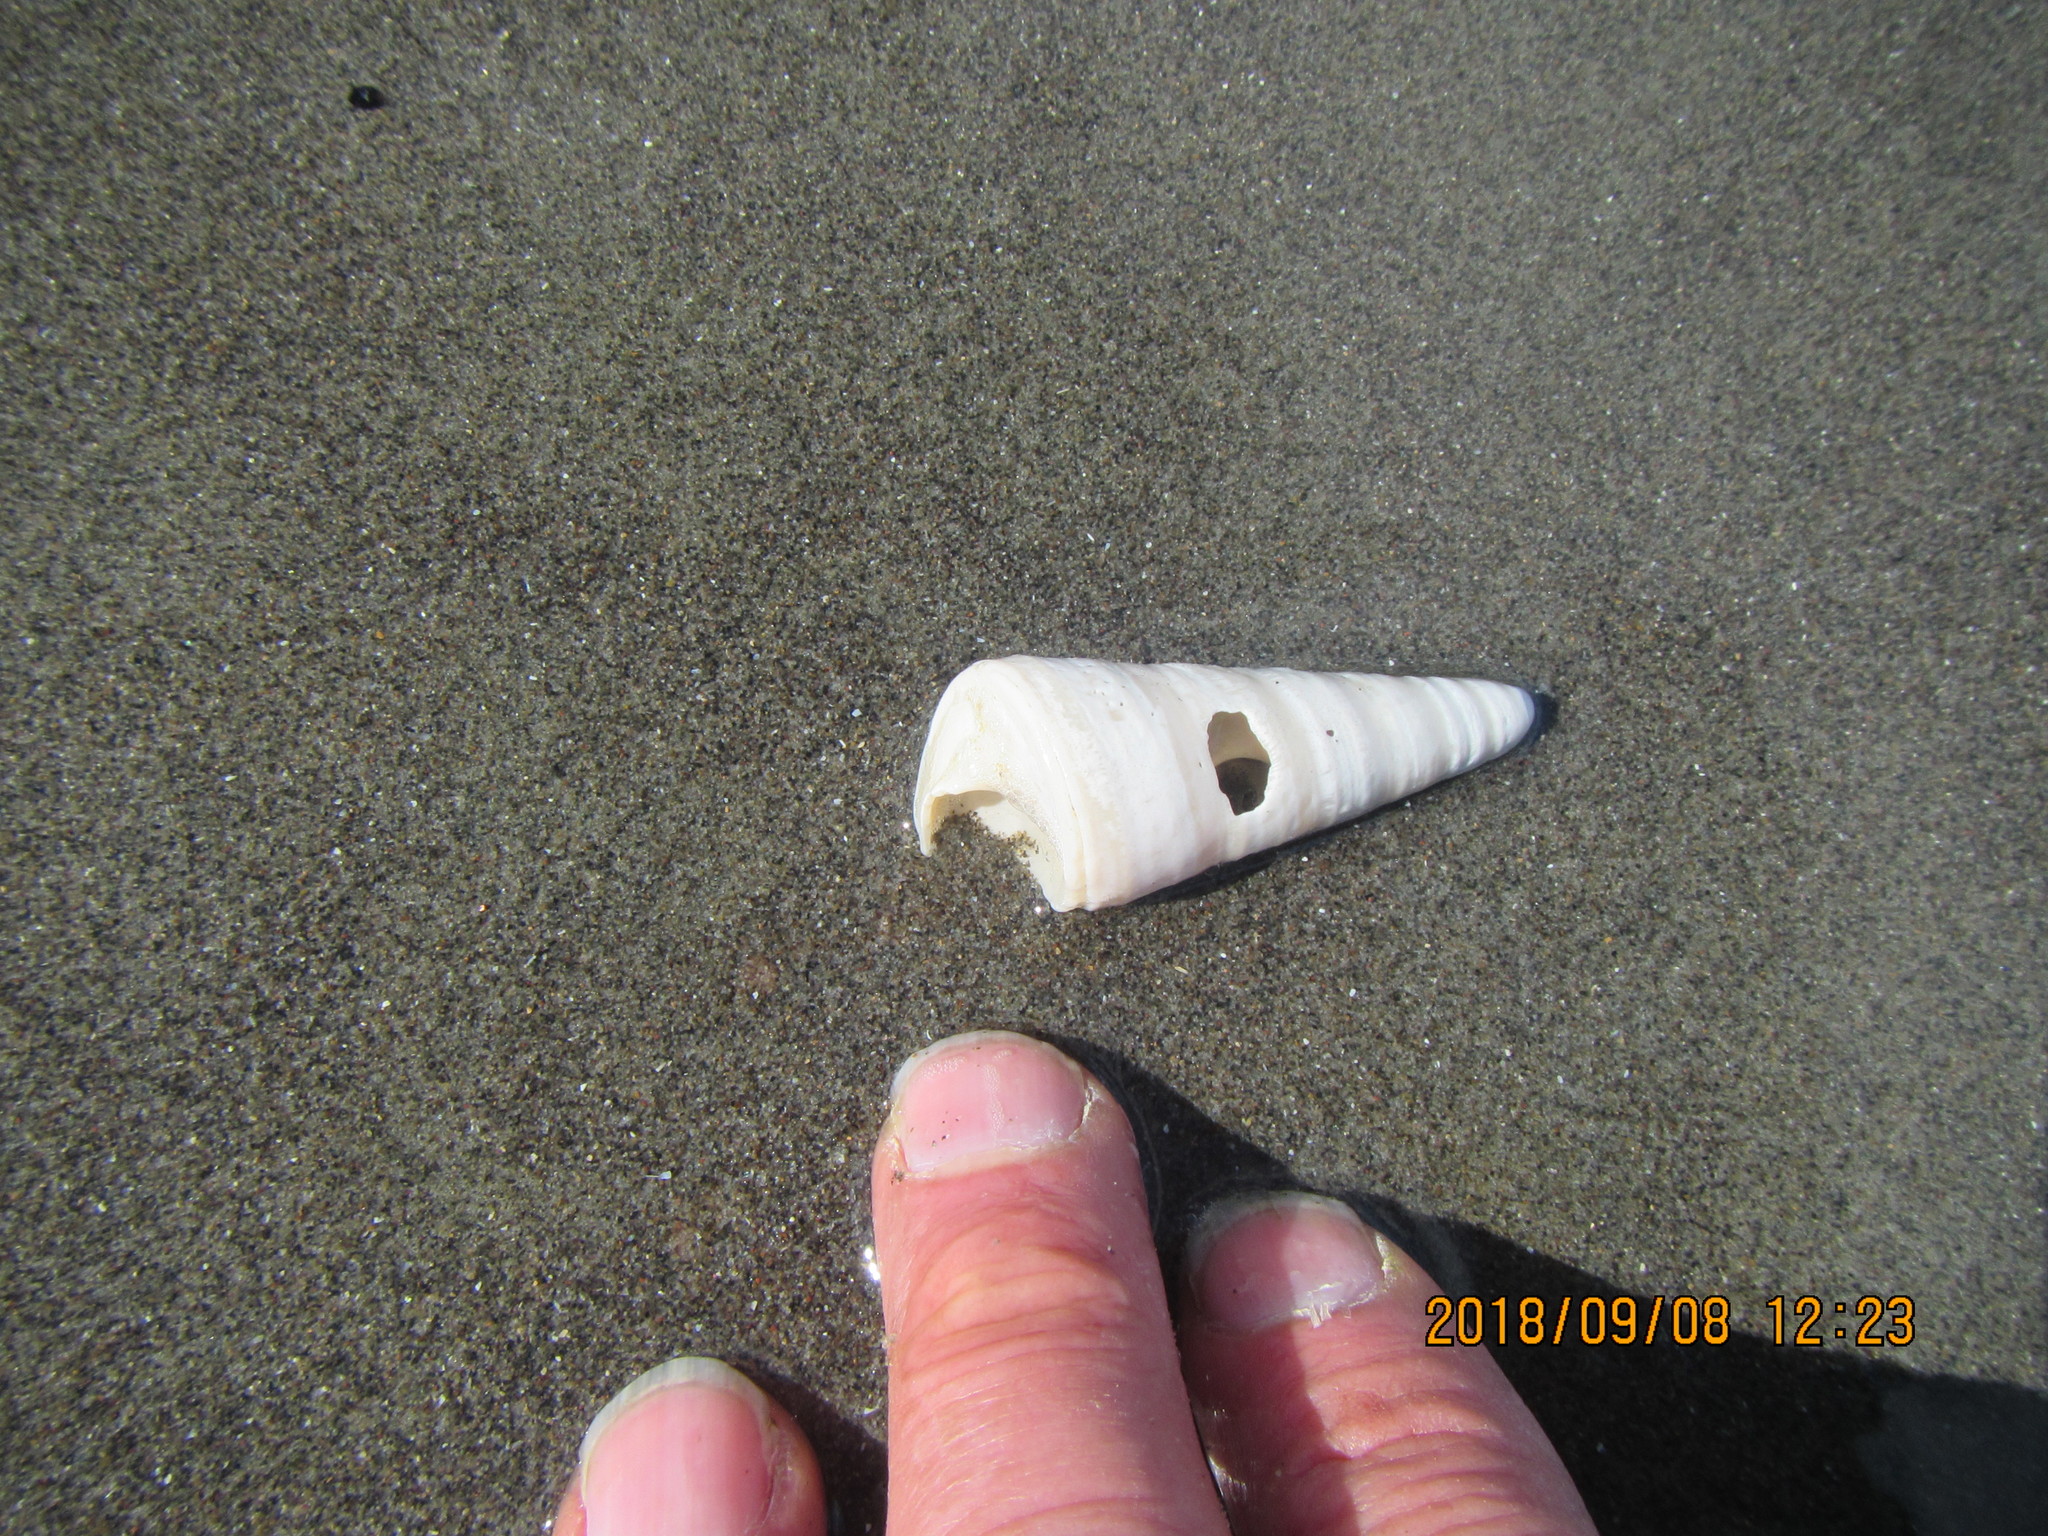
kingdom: Animalia
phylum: Mollusca
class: Gastropoda
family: Turritellidae
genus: Maoricolpus
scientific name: Maoricolpus roseus
